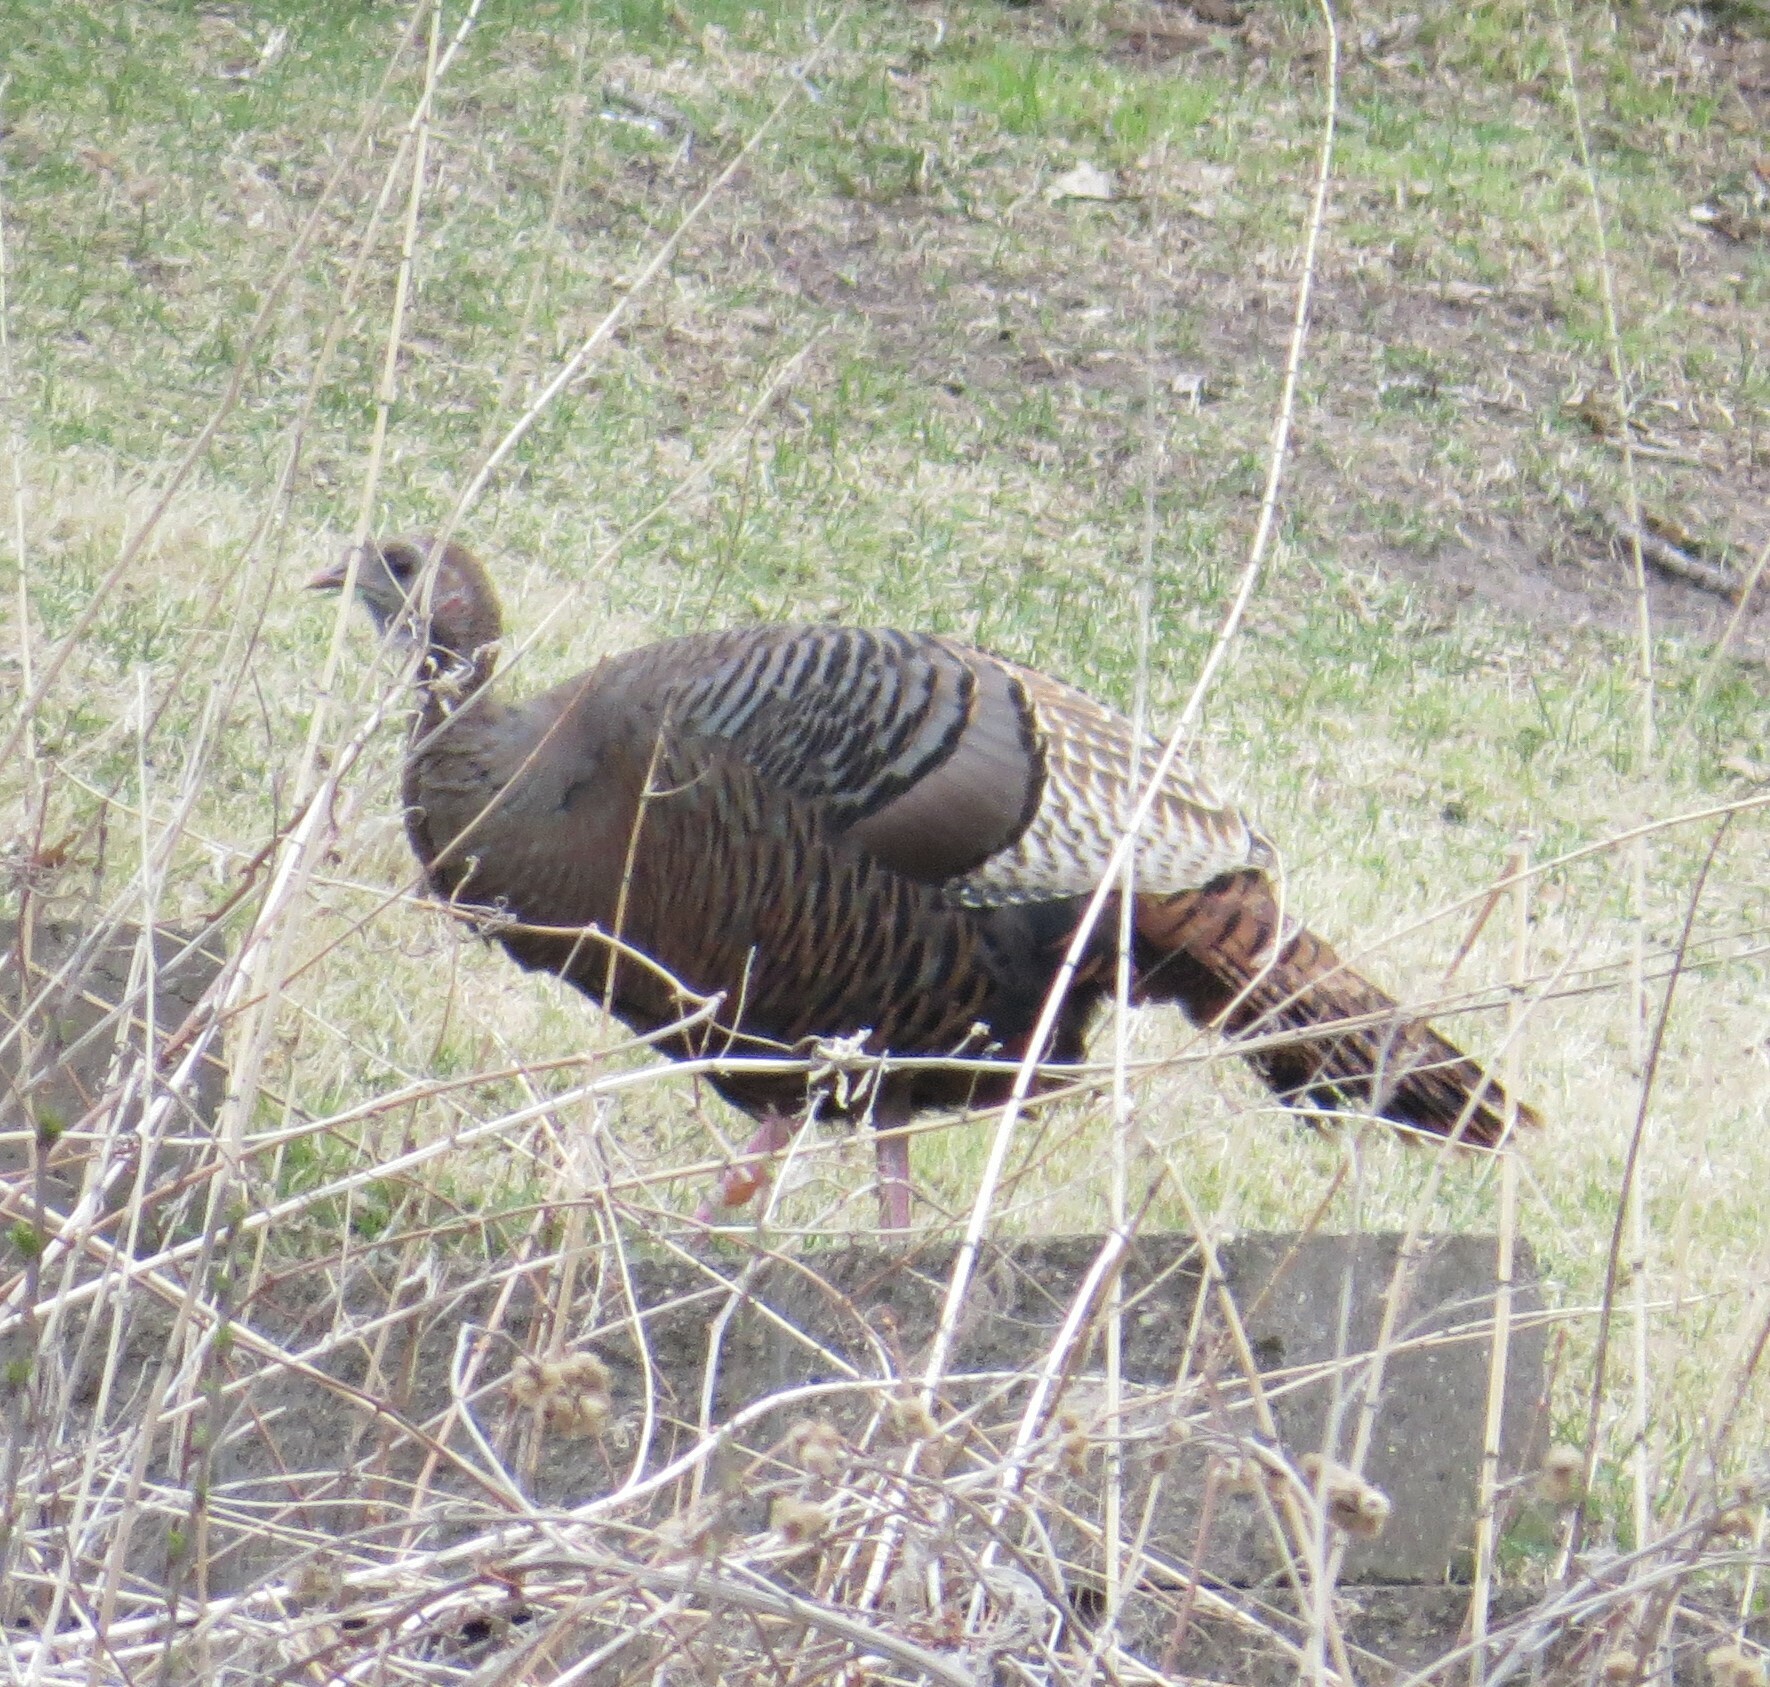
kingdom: Animalia
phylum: Chordata
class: Aves
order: Galliformes
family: Phasianidae
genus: Meleagris
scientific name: Meleagris gallopavo
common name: Wild turkey
